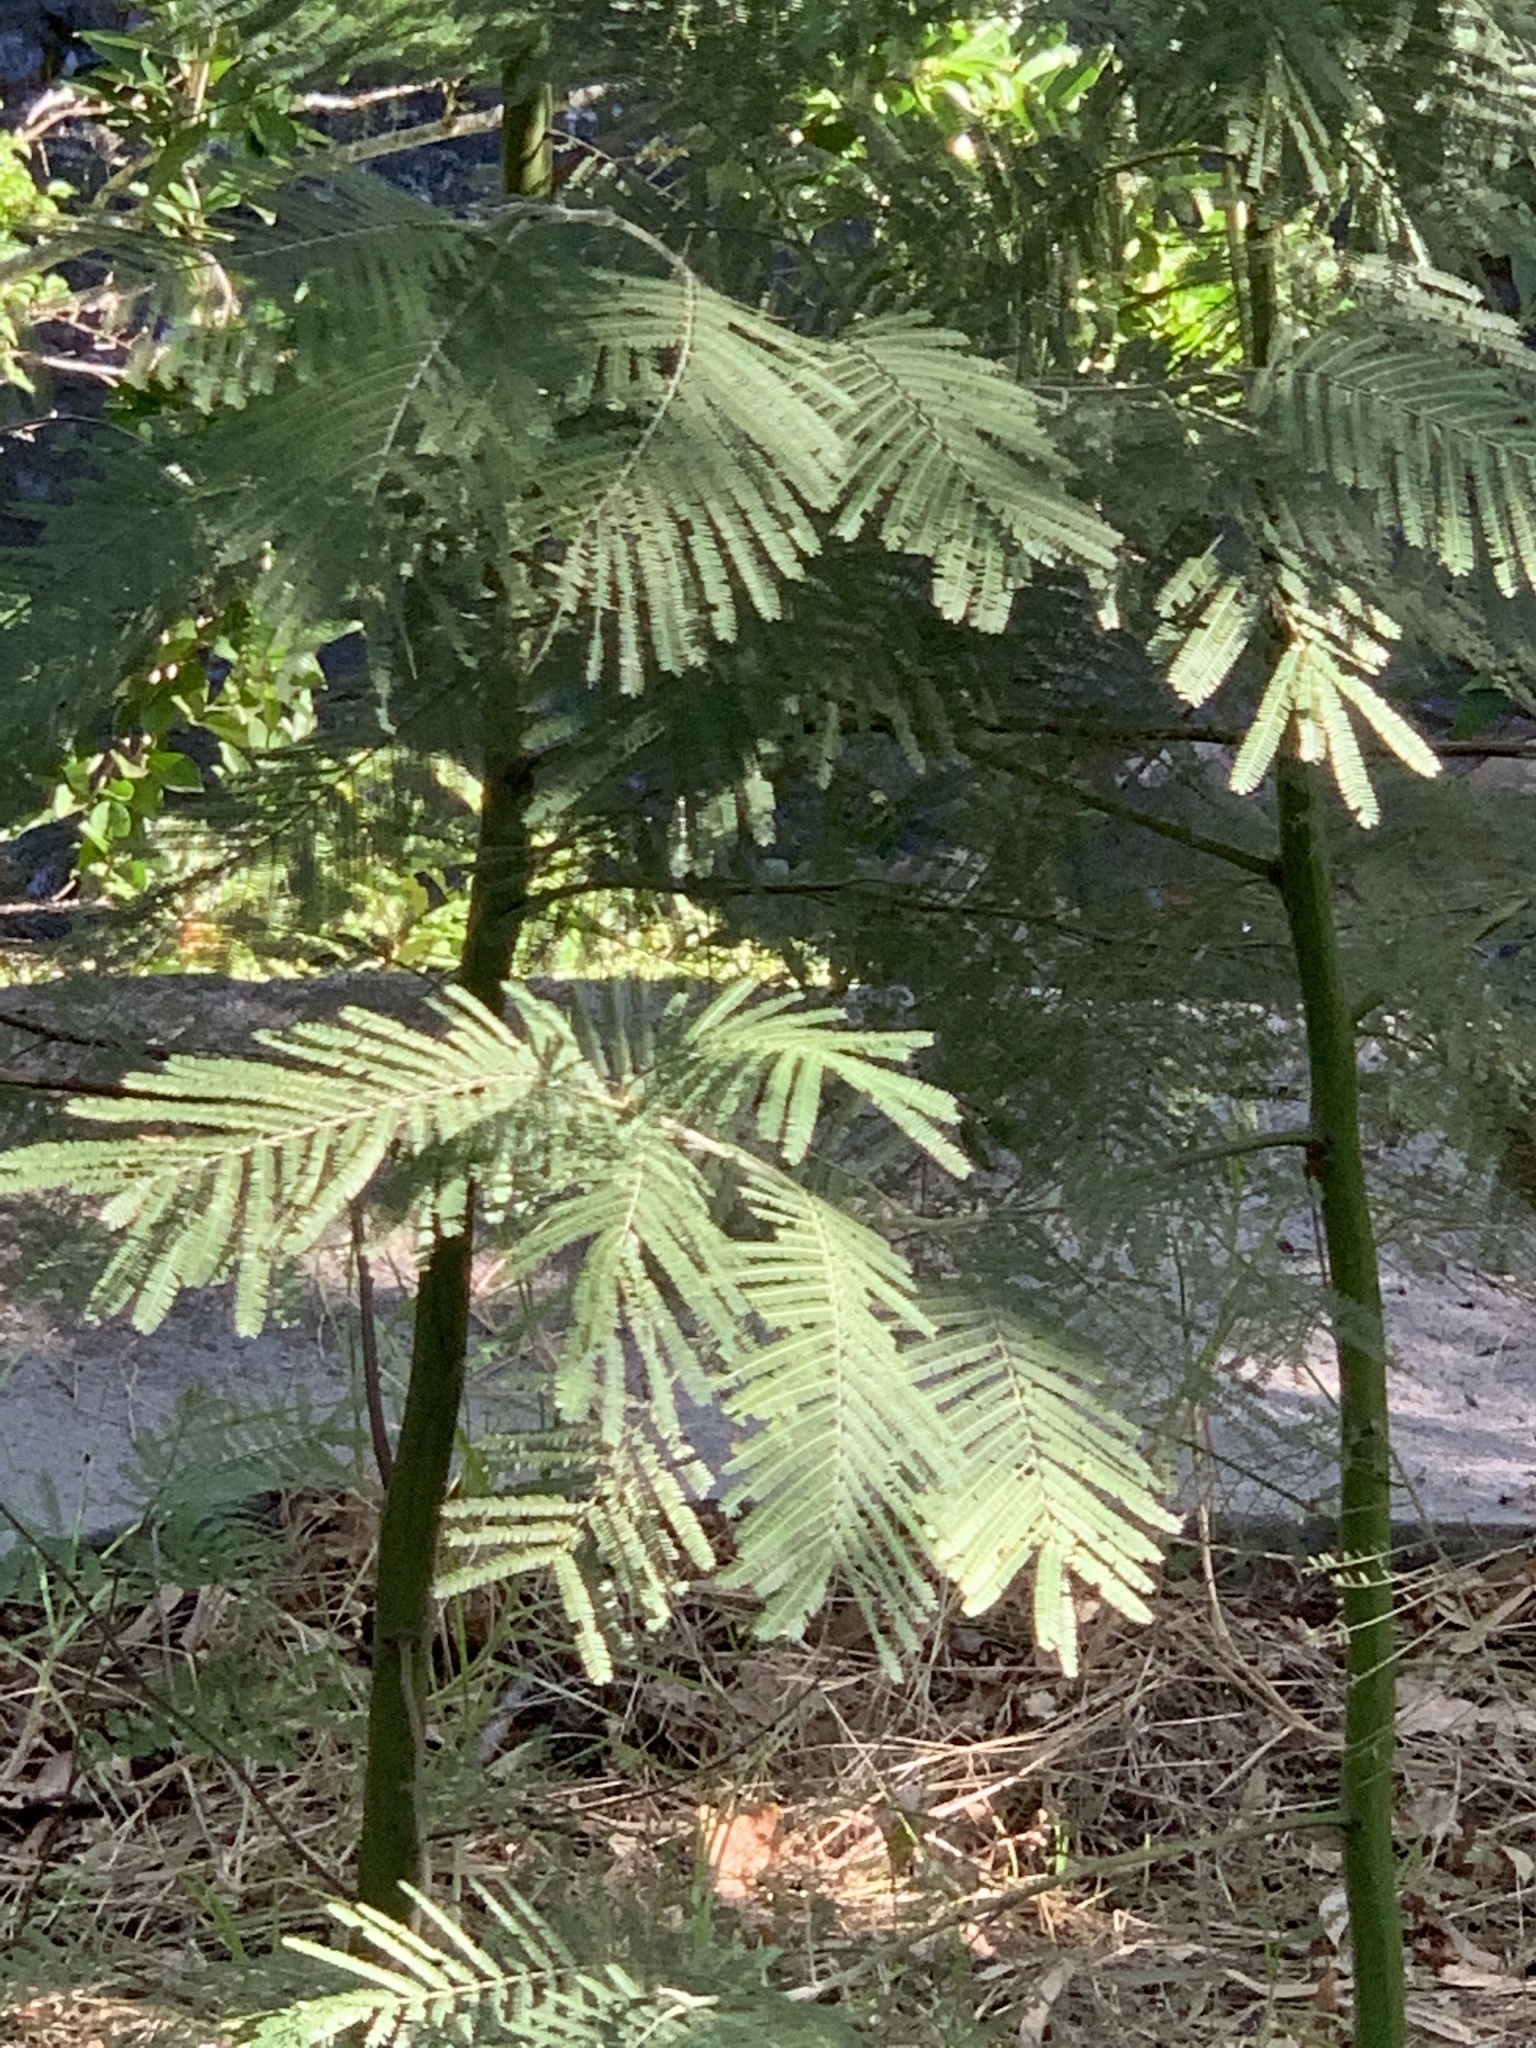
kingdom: Plantae
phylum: Tracheophyta
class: Magnoliopsida
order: Fabales
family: Fabaceae
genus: Acacia
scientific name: Acacia mearnsii
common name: Black wattle
